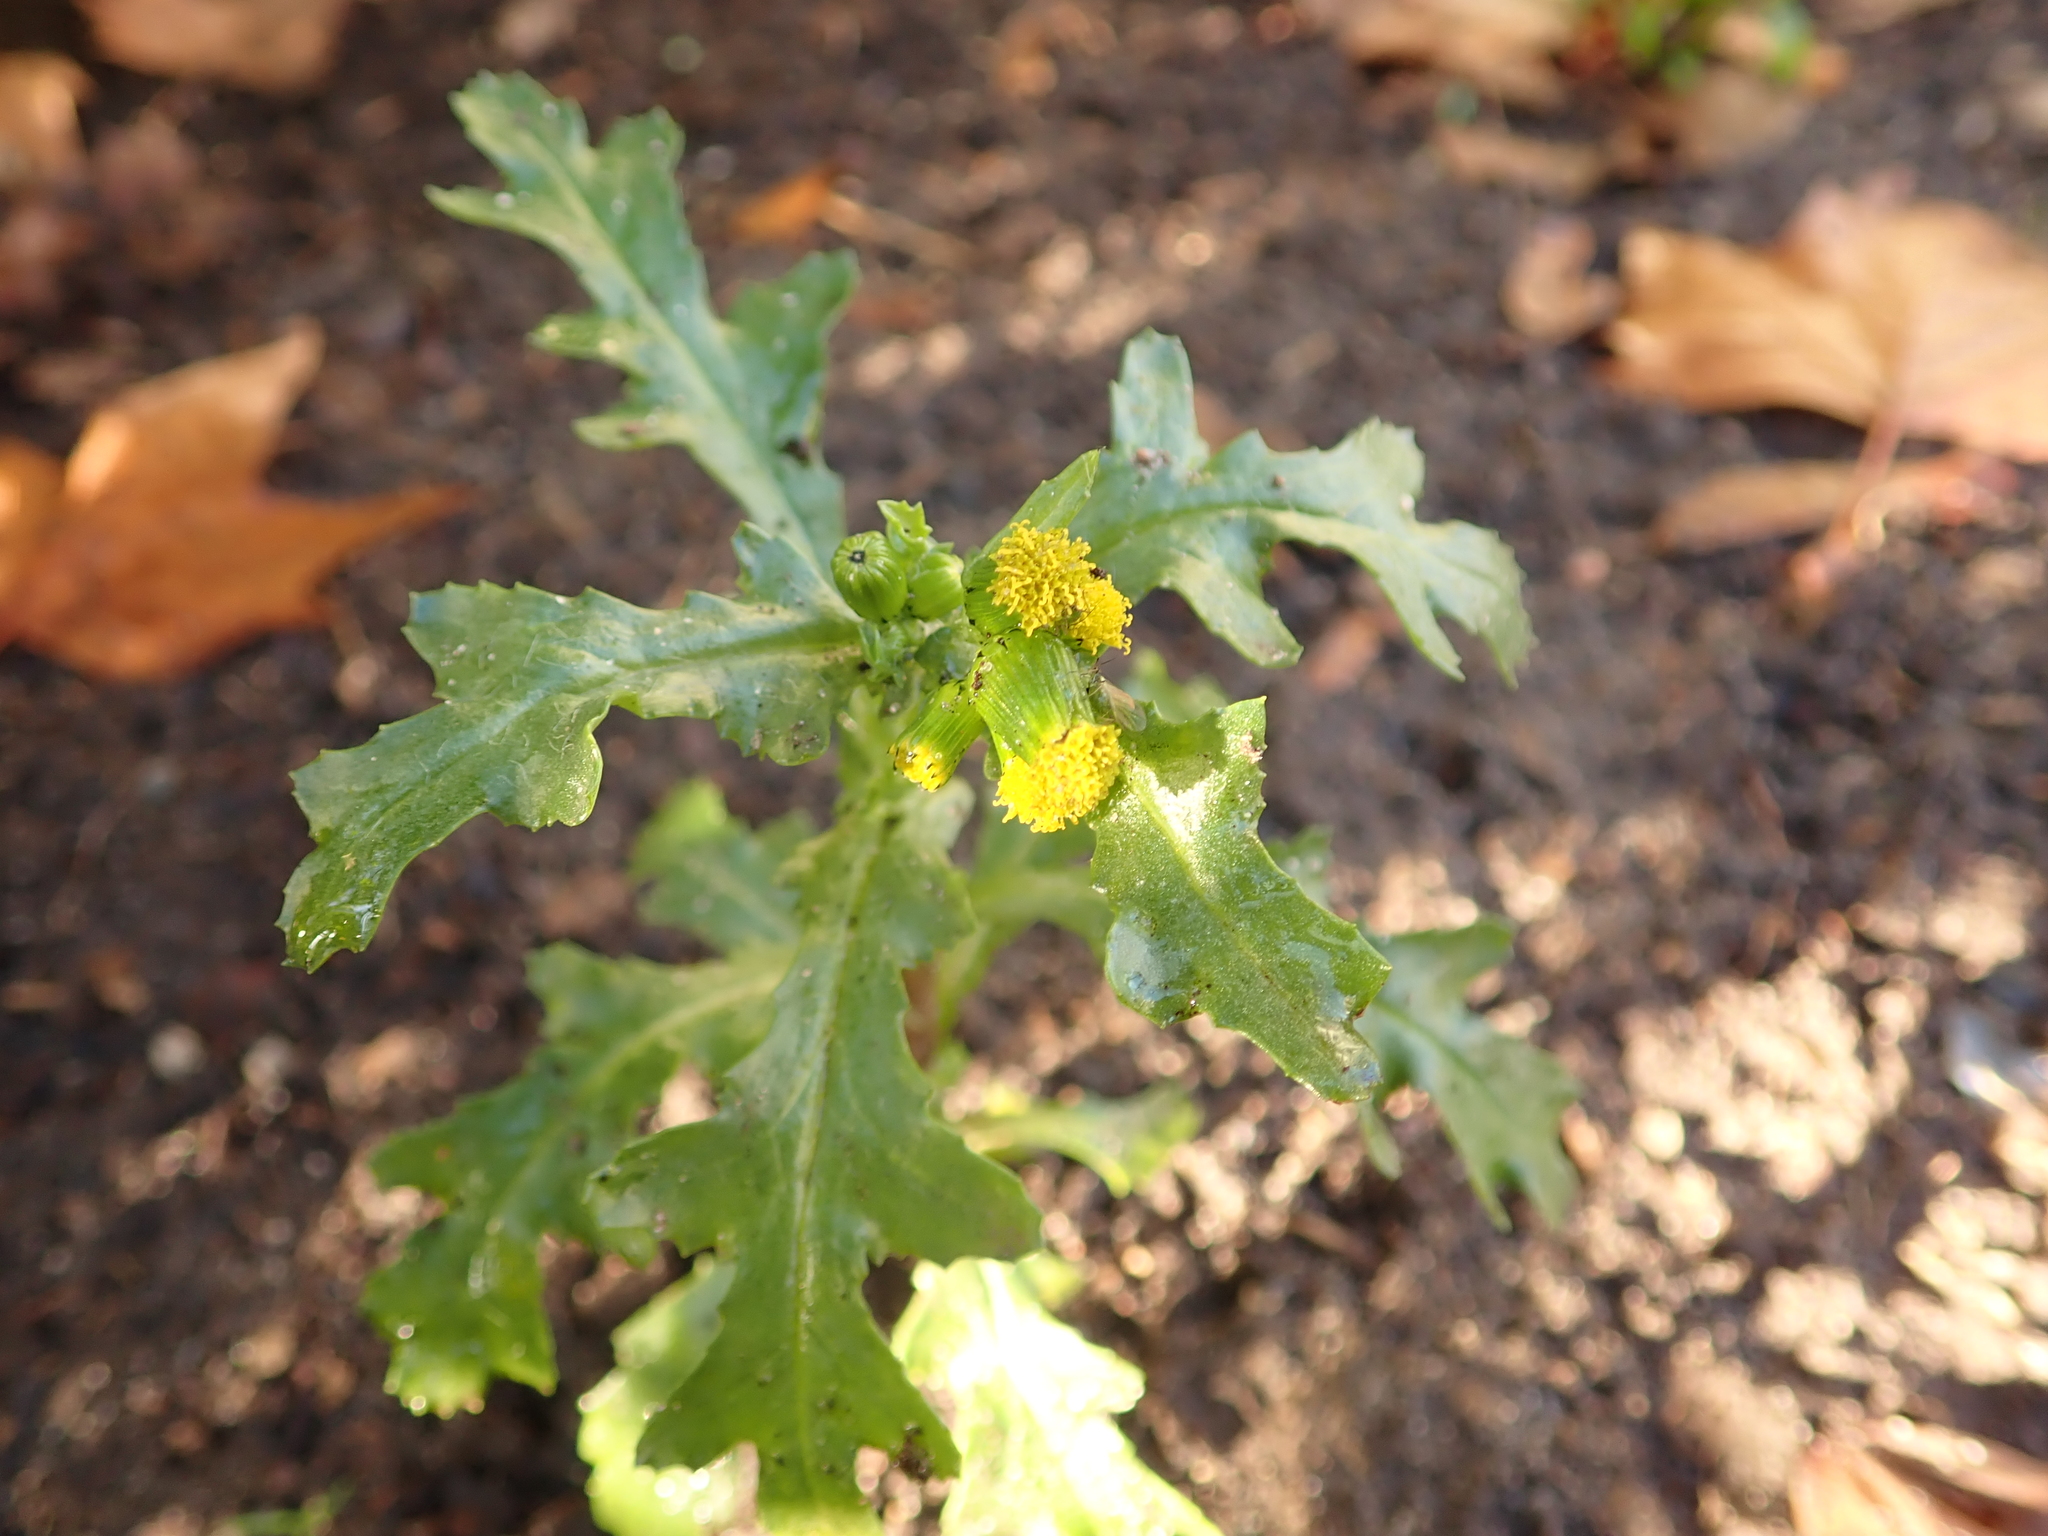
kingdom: Plantae
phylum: Tracheophyta
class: Magnoliopsida
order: Asterales
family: Asteraceae
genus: Senecio
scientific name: Senecio vulgaris
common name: Old-man-in-the-spring
